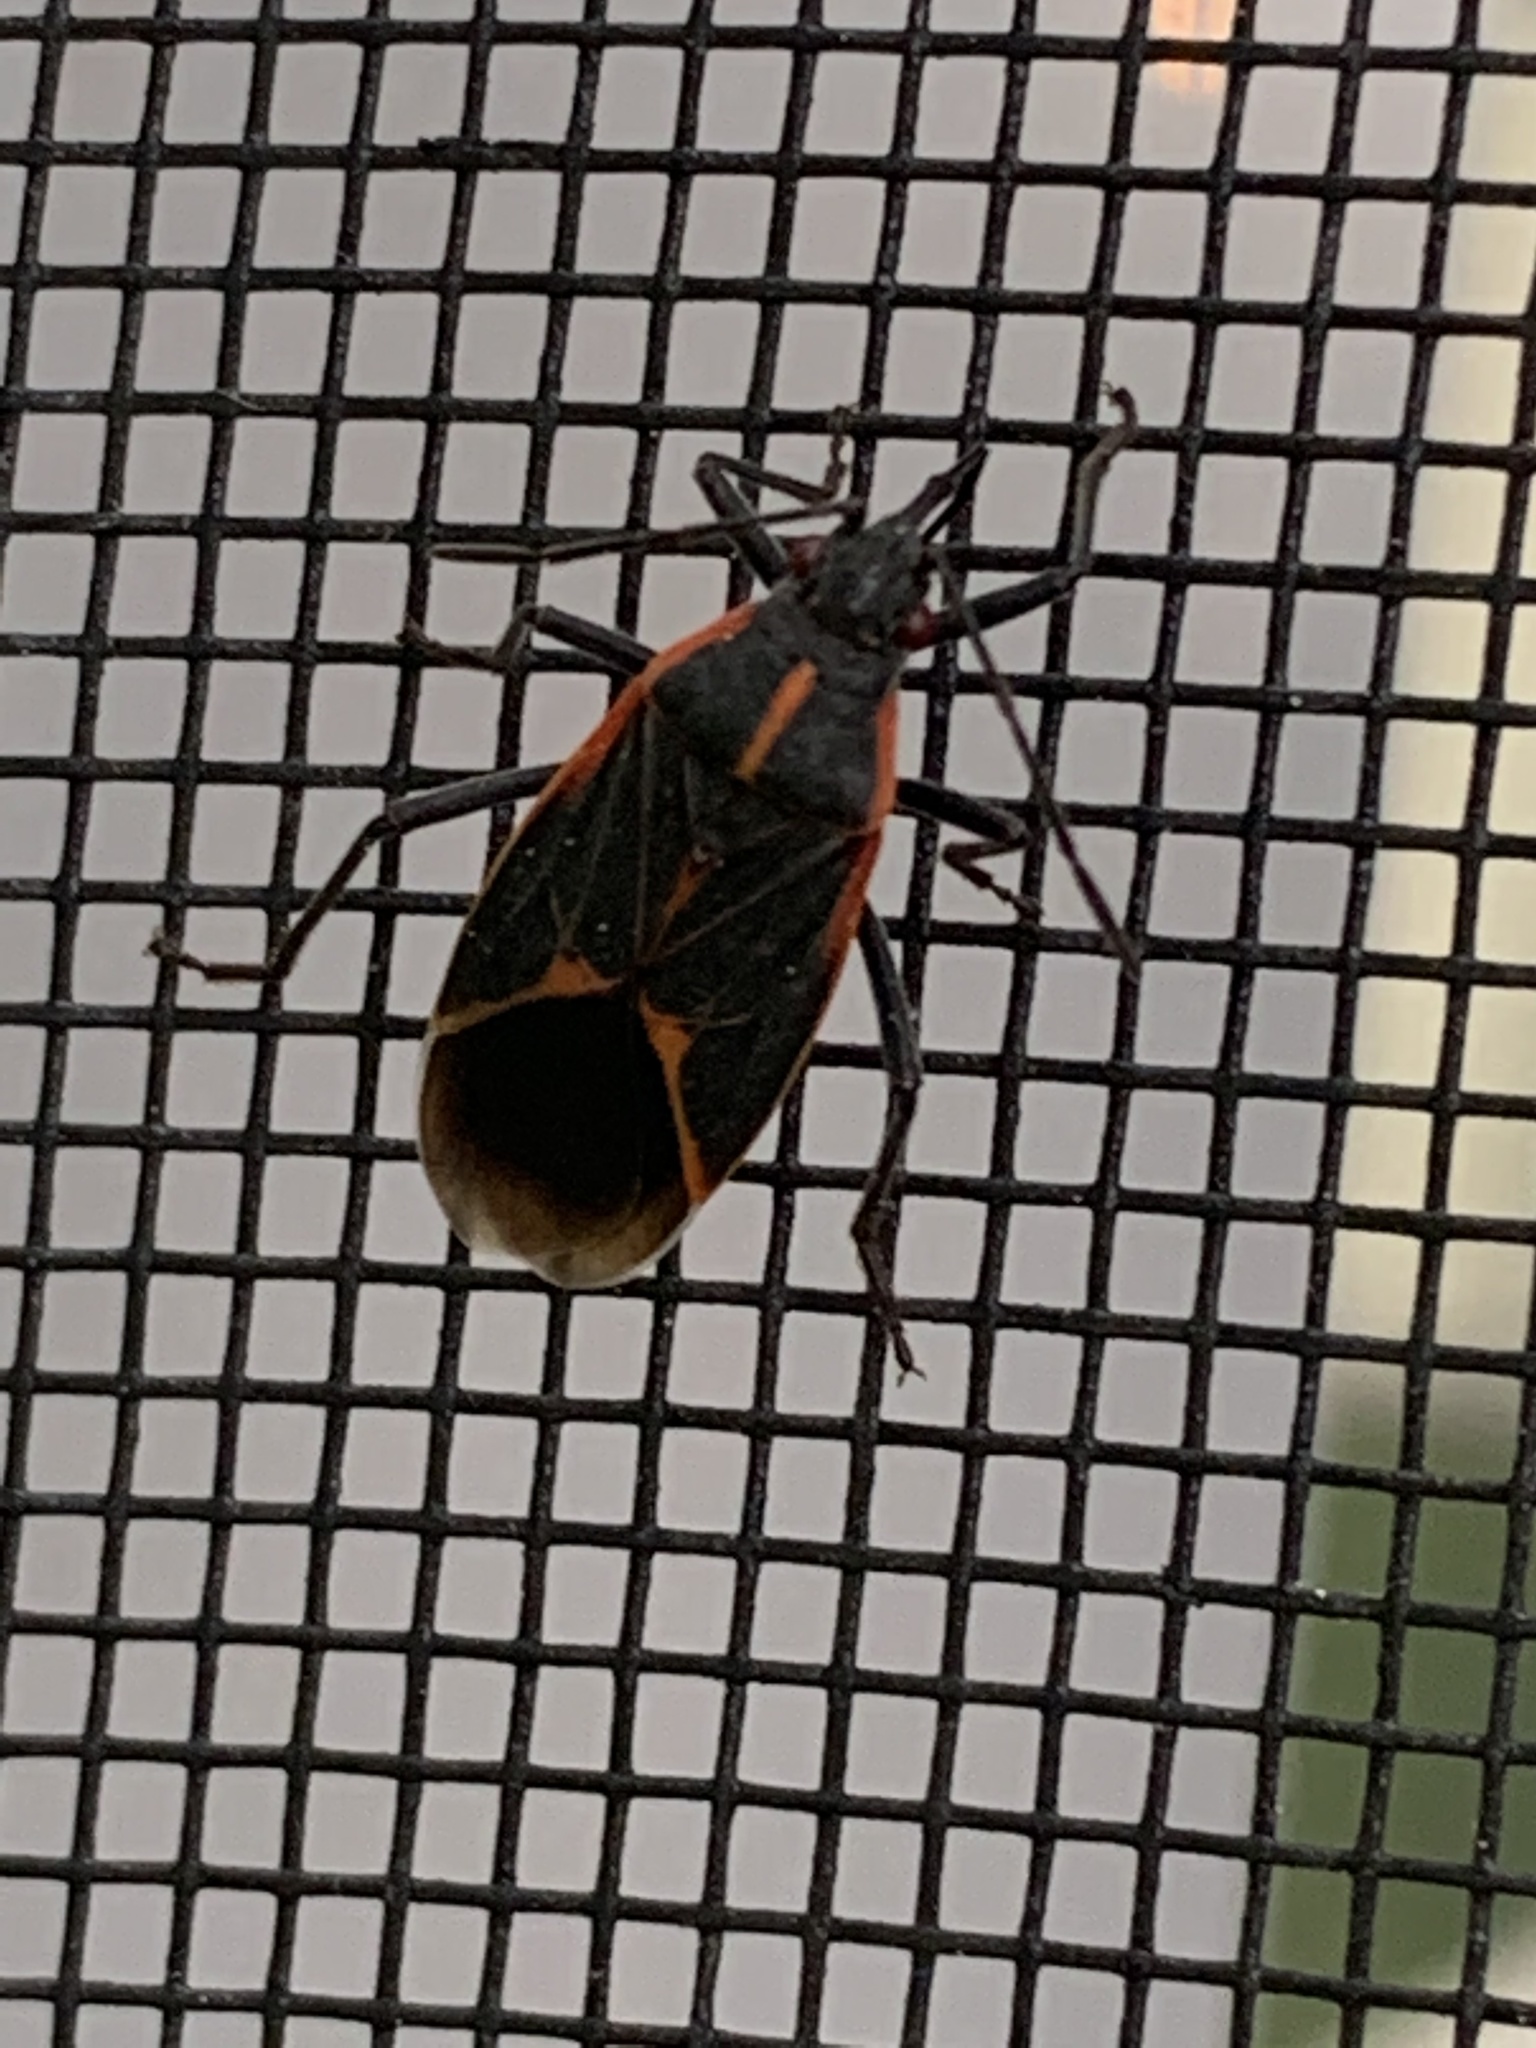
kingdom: Animalia
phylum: Arthropoda
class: Insecta
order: Hemiptera
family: Rhopalidae
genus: Boisea
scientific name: Boisea trivittata
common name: Boxelder bug
